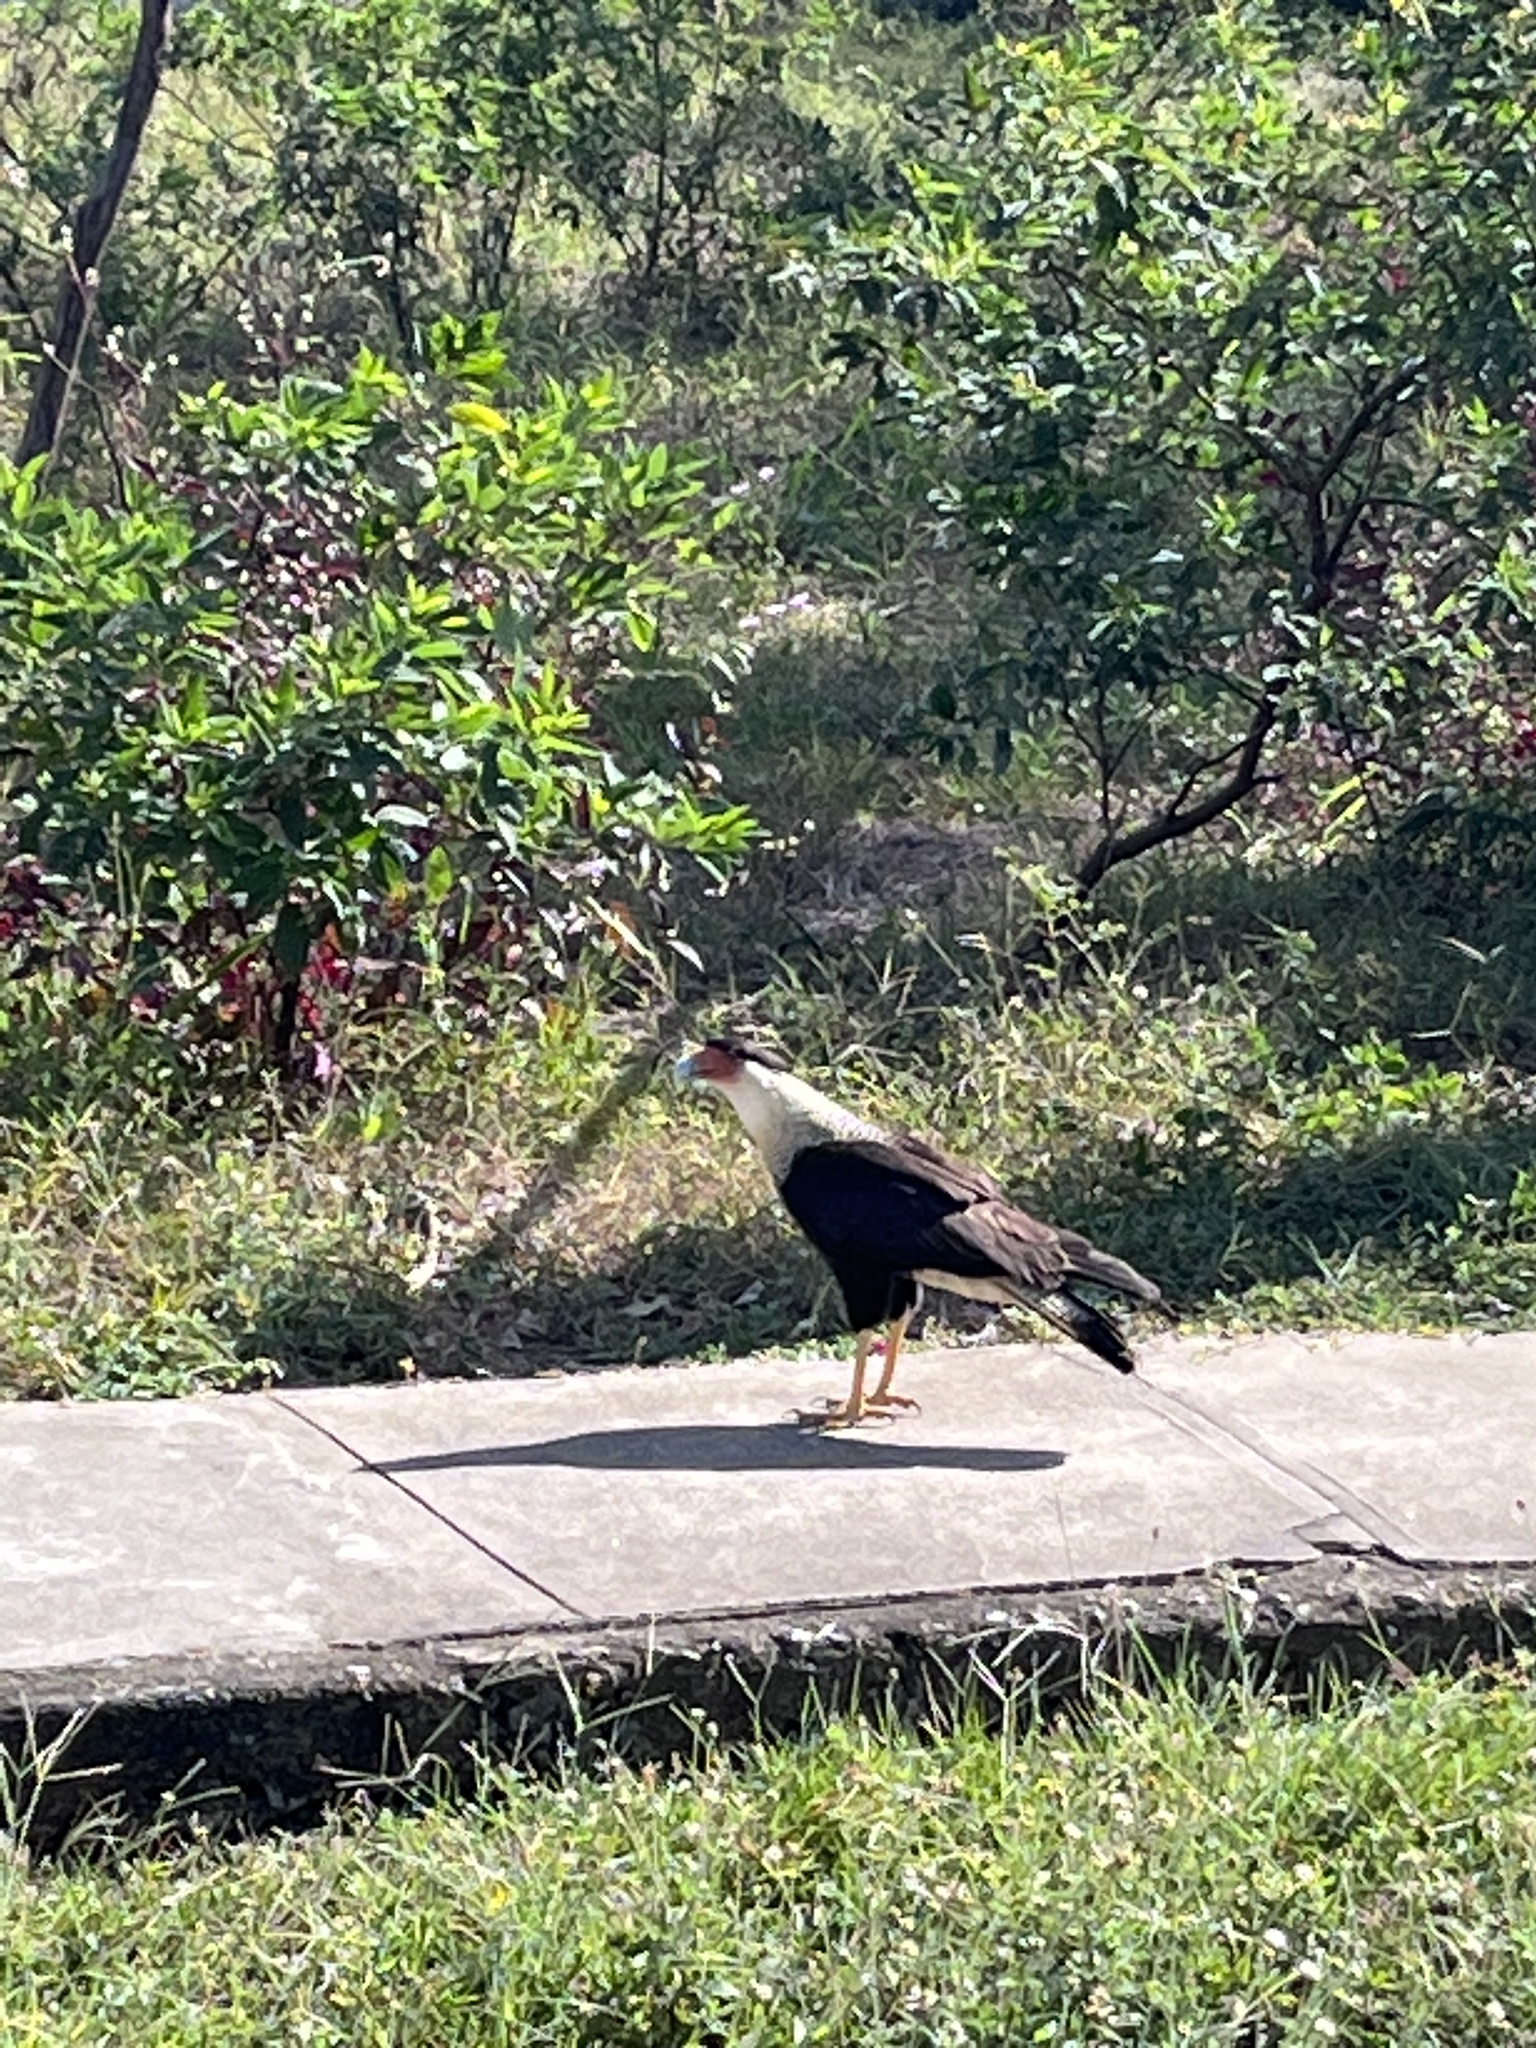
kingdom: Animalia
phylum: Chordata
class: Aves
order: Falconiformes
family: Falconidae
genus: Caracara
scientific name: Caracara plancus
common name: Southern caracara
